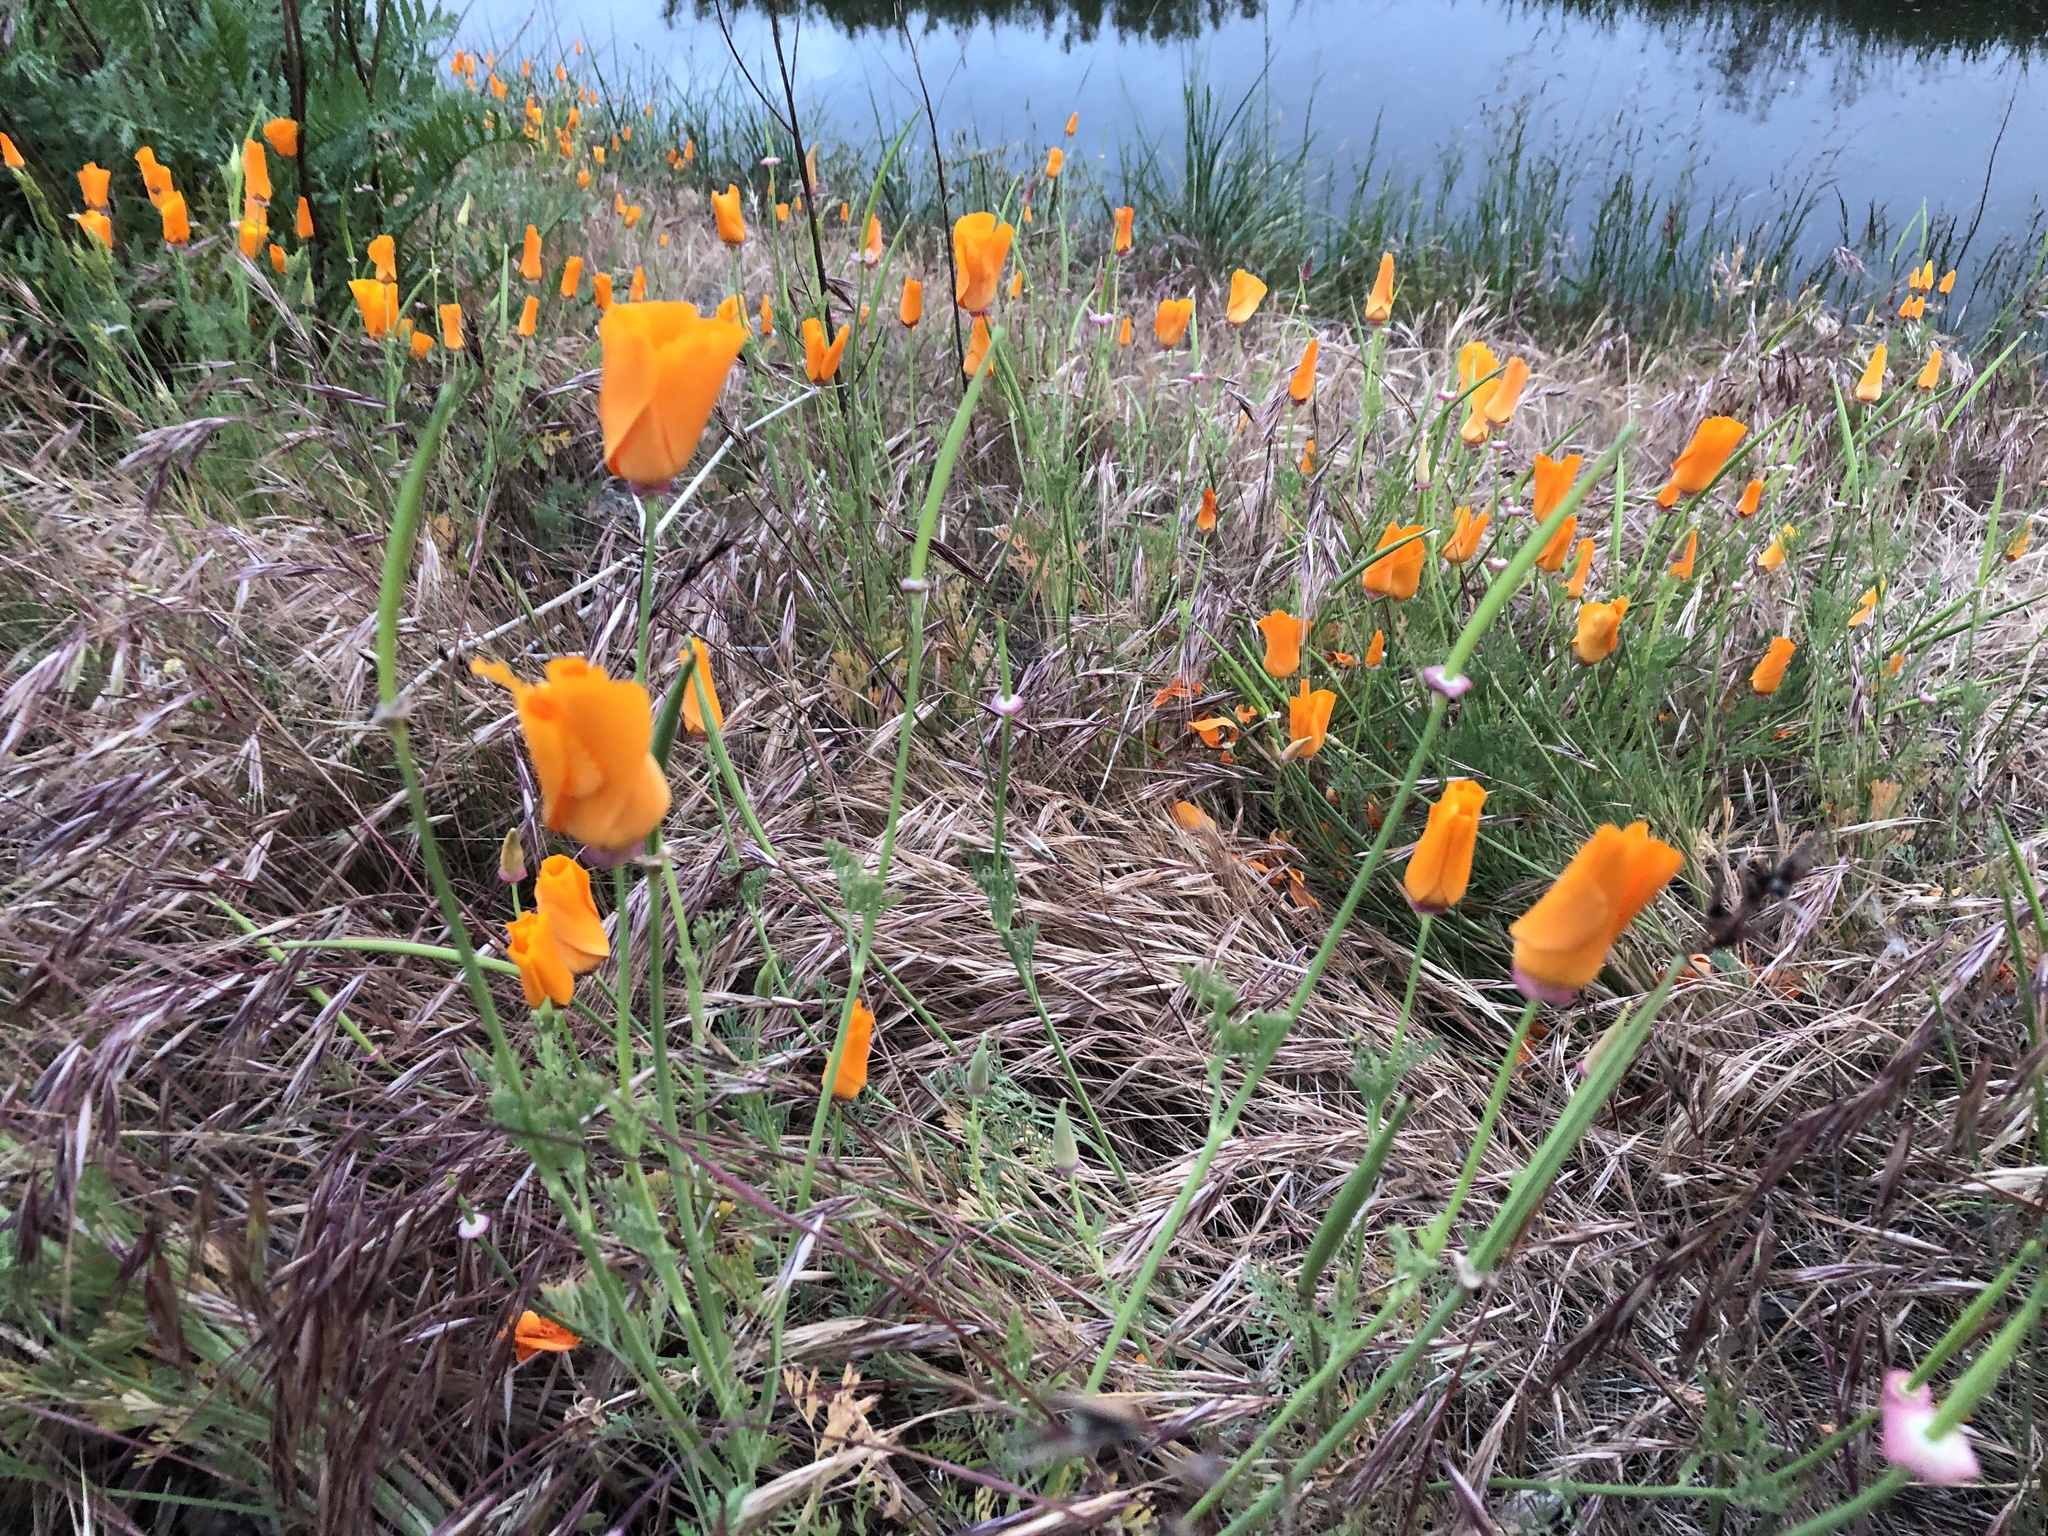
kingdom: Plantae
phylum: Tracheophyta
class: Magnoliopsida
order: Ranunculales
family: Papaveraceae
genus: Eschscholzia
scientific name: Eschscholzia californica
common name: California poppy
